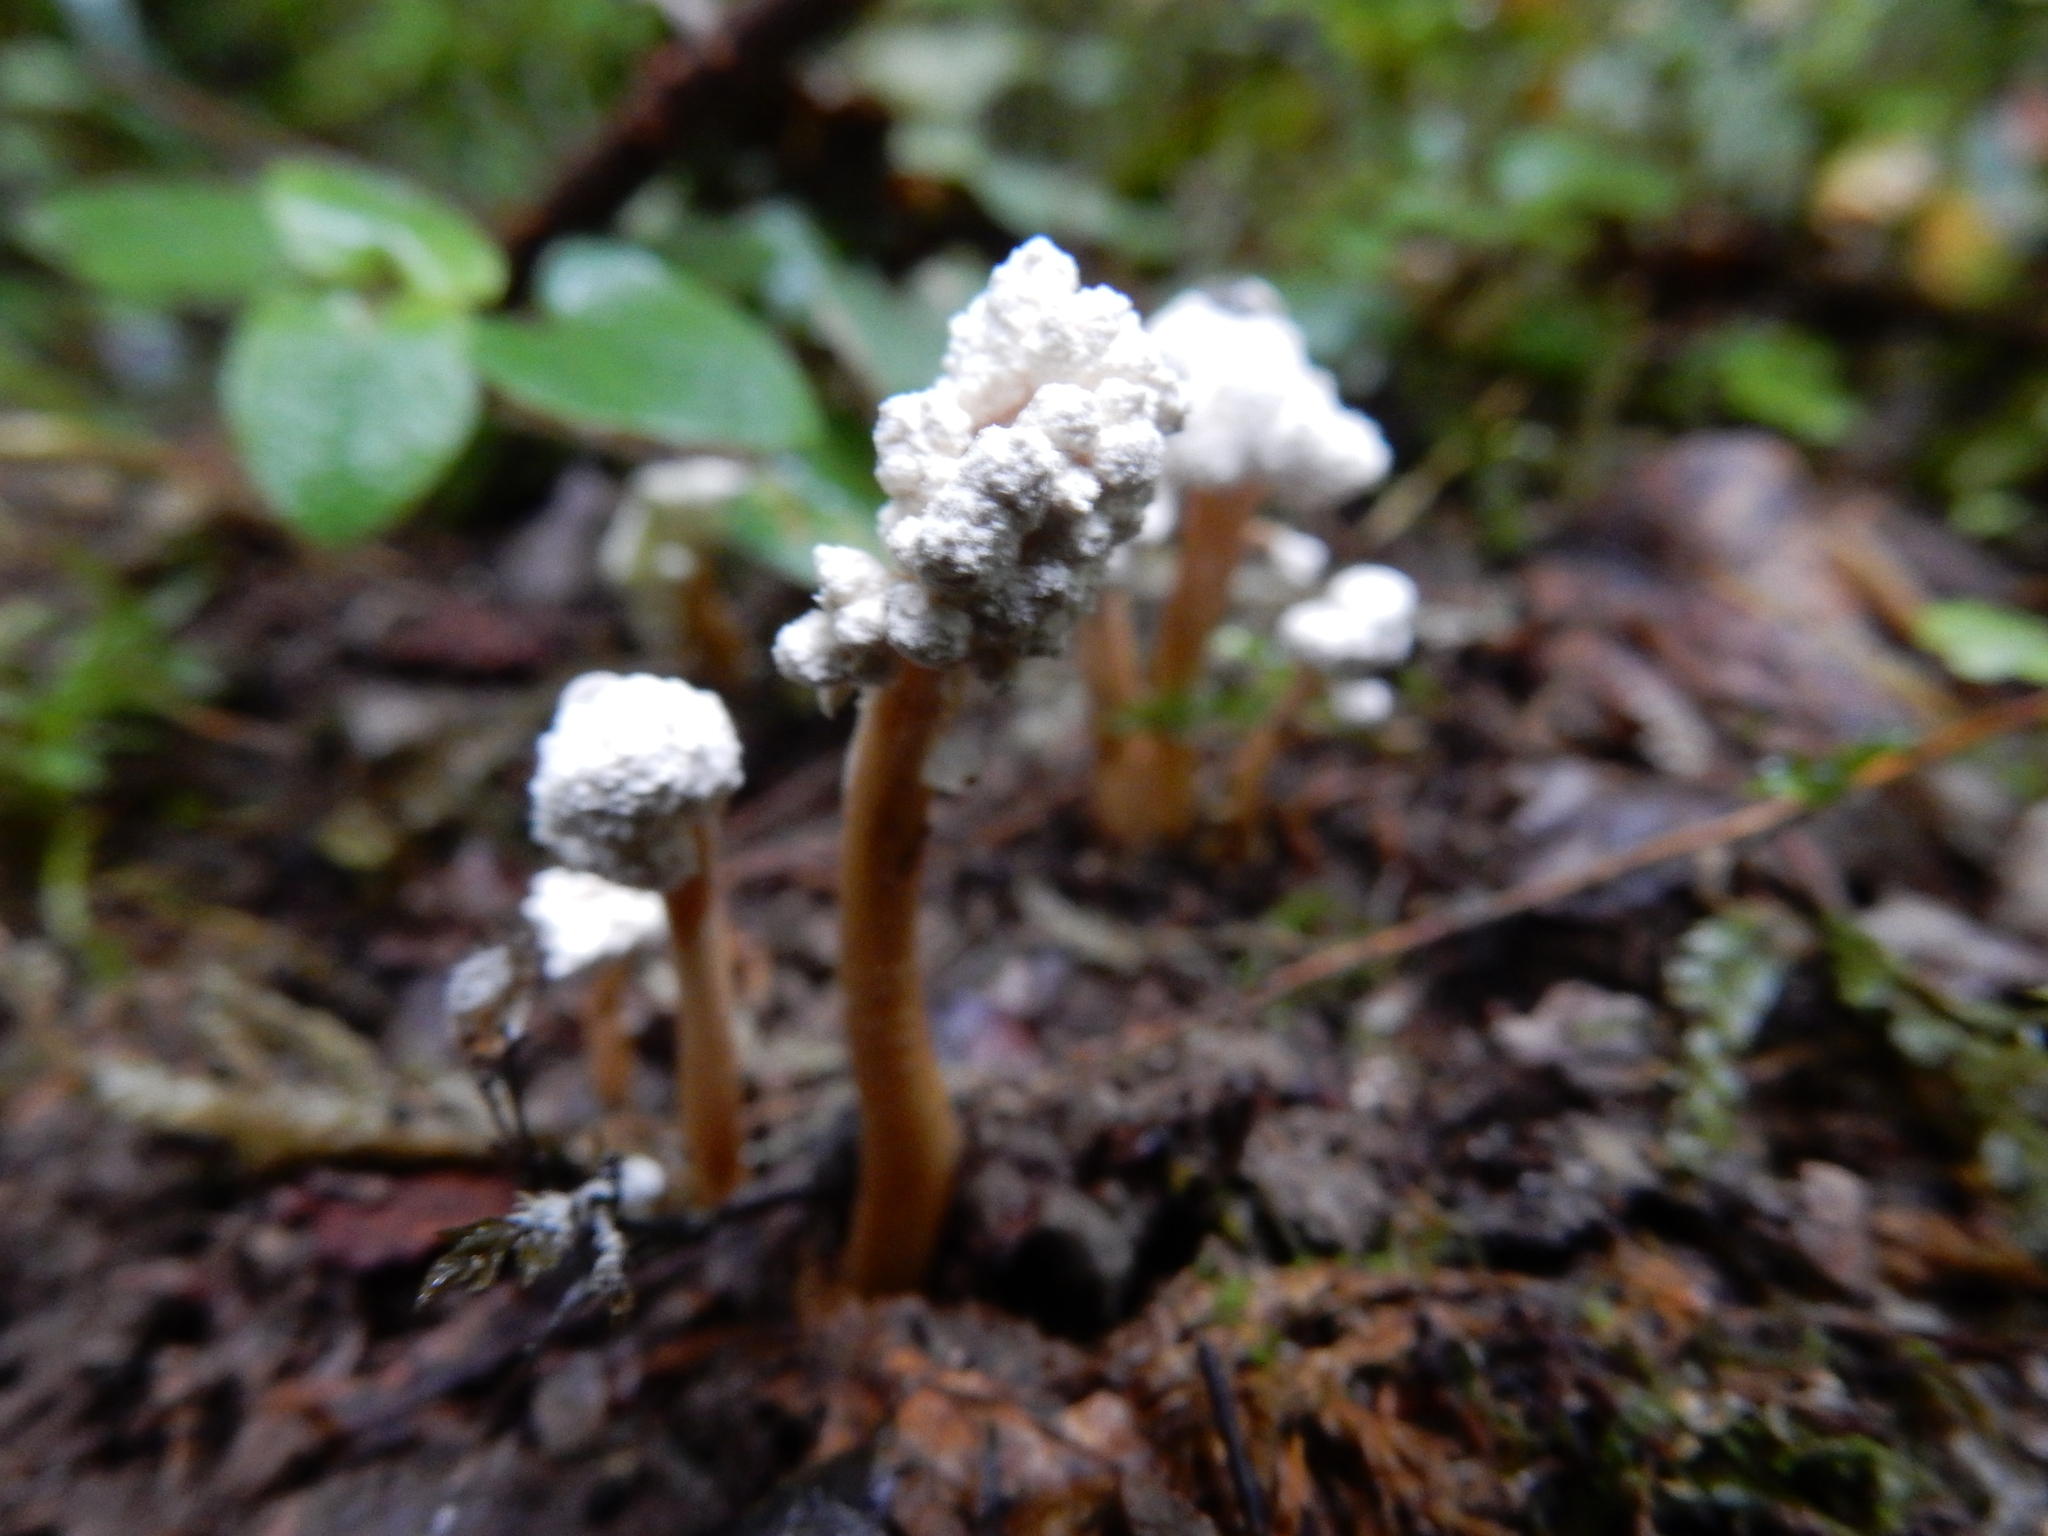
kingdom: Fungi
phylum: Ascomycota
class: Sordariomycetes
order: Hypocreales
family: Cordycipitaceae
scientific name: Cordycipitaceae
